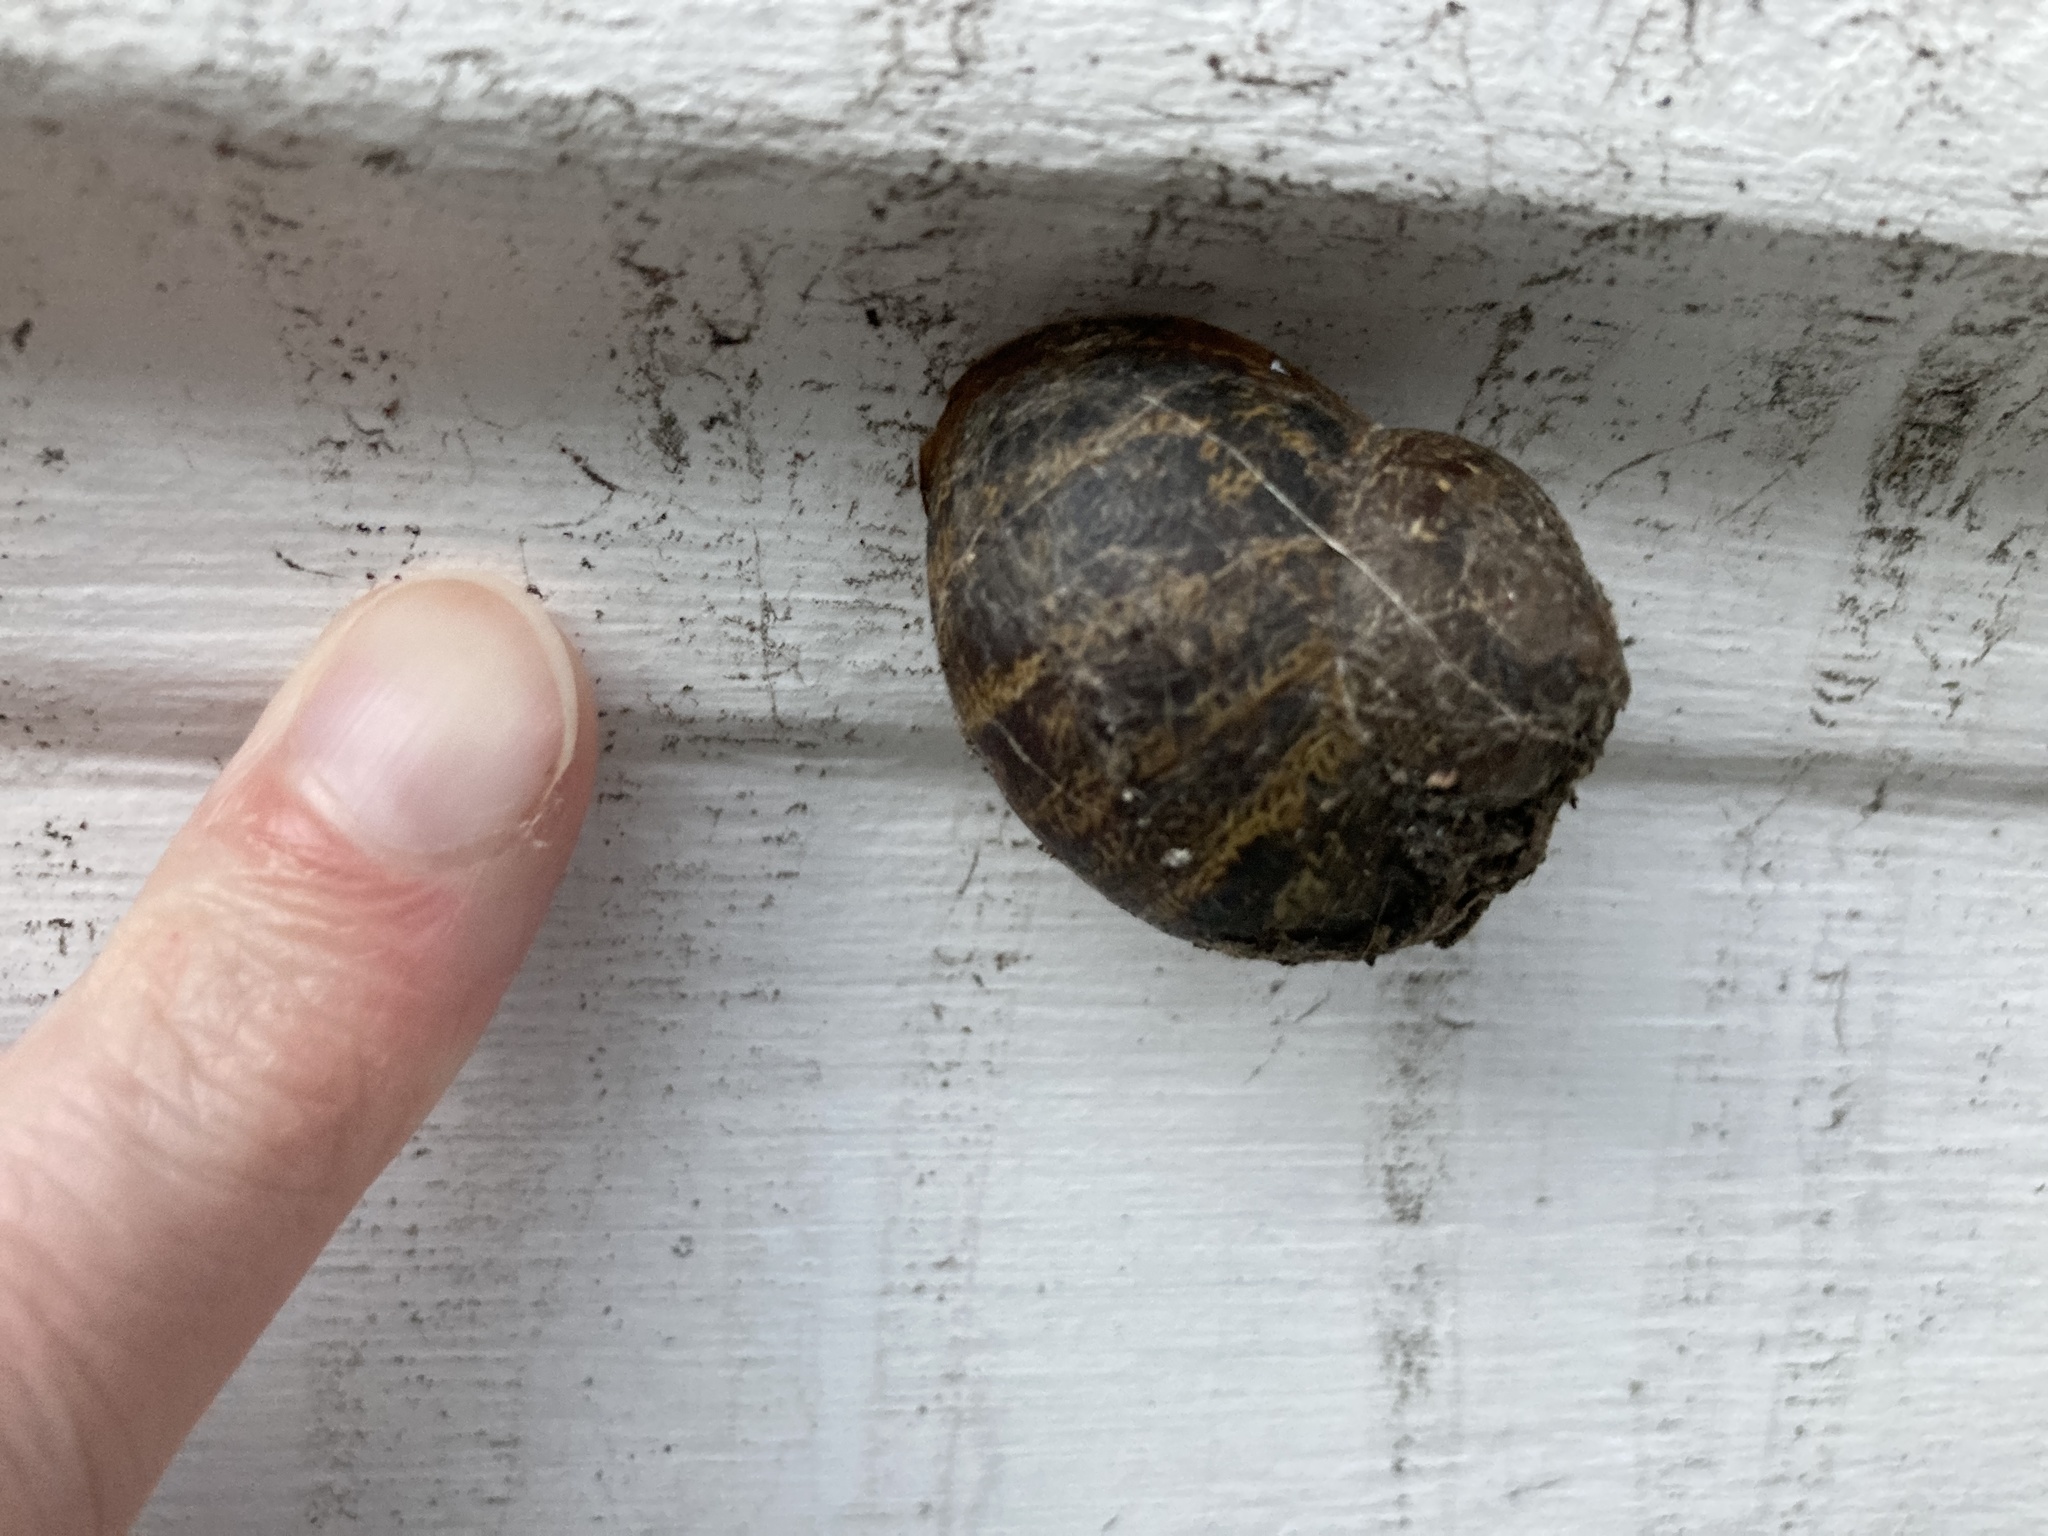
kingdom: Animalia
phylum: Mollusca
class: Gastropoda
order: Stylommatophora
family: Helicidae
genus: Cornu
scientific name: Cornu aspersum
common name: Brown garden snail
